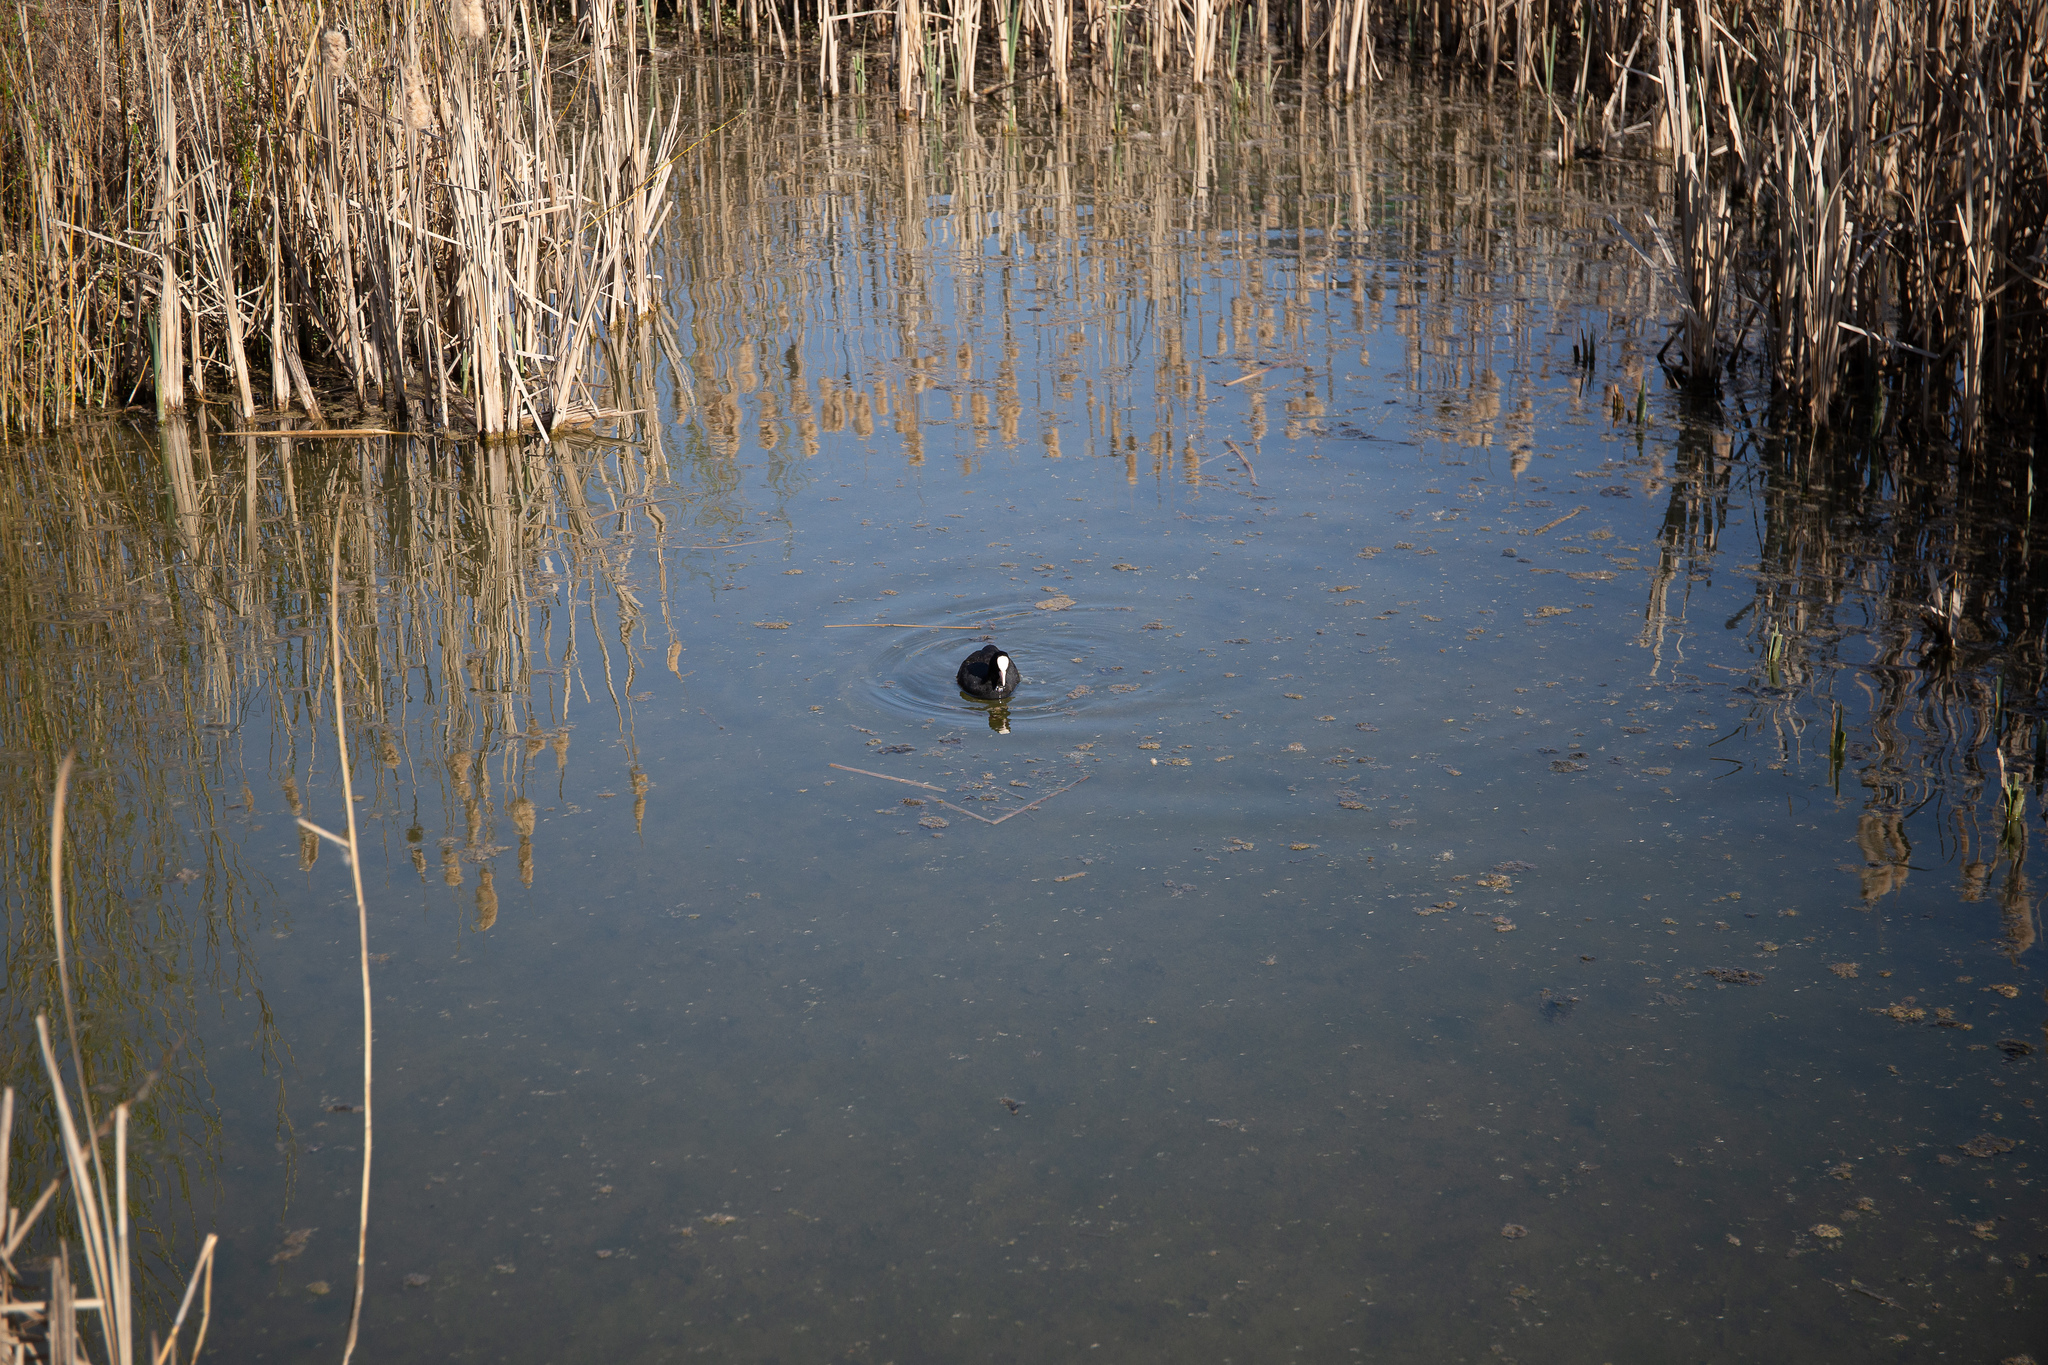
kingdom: Animalia
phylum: Chordata
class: Aves
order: Gruiformes
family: Rallidae
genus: Fulica
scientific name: Fulica atra
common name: Eurasian coot
